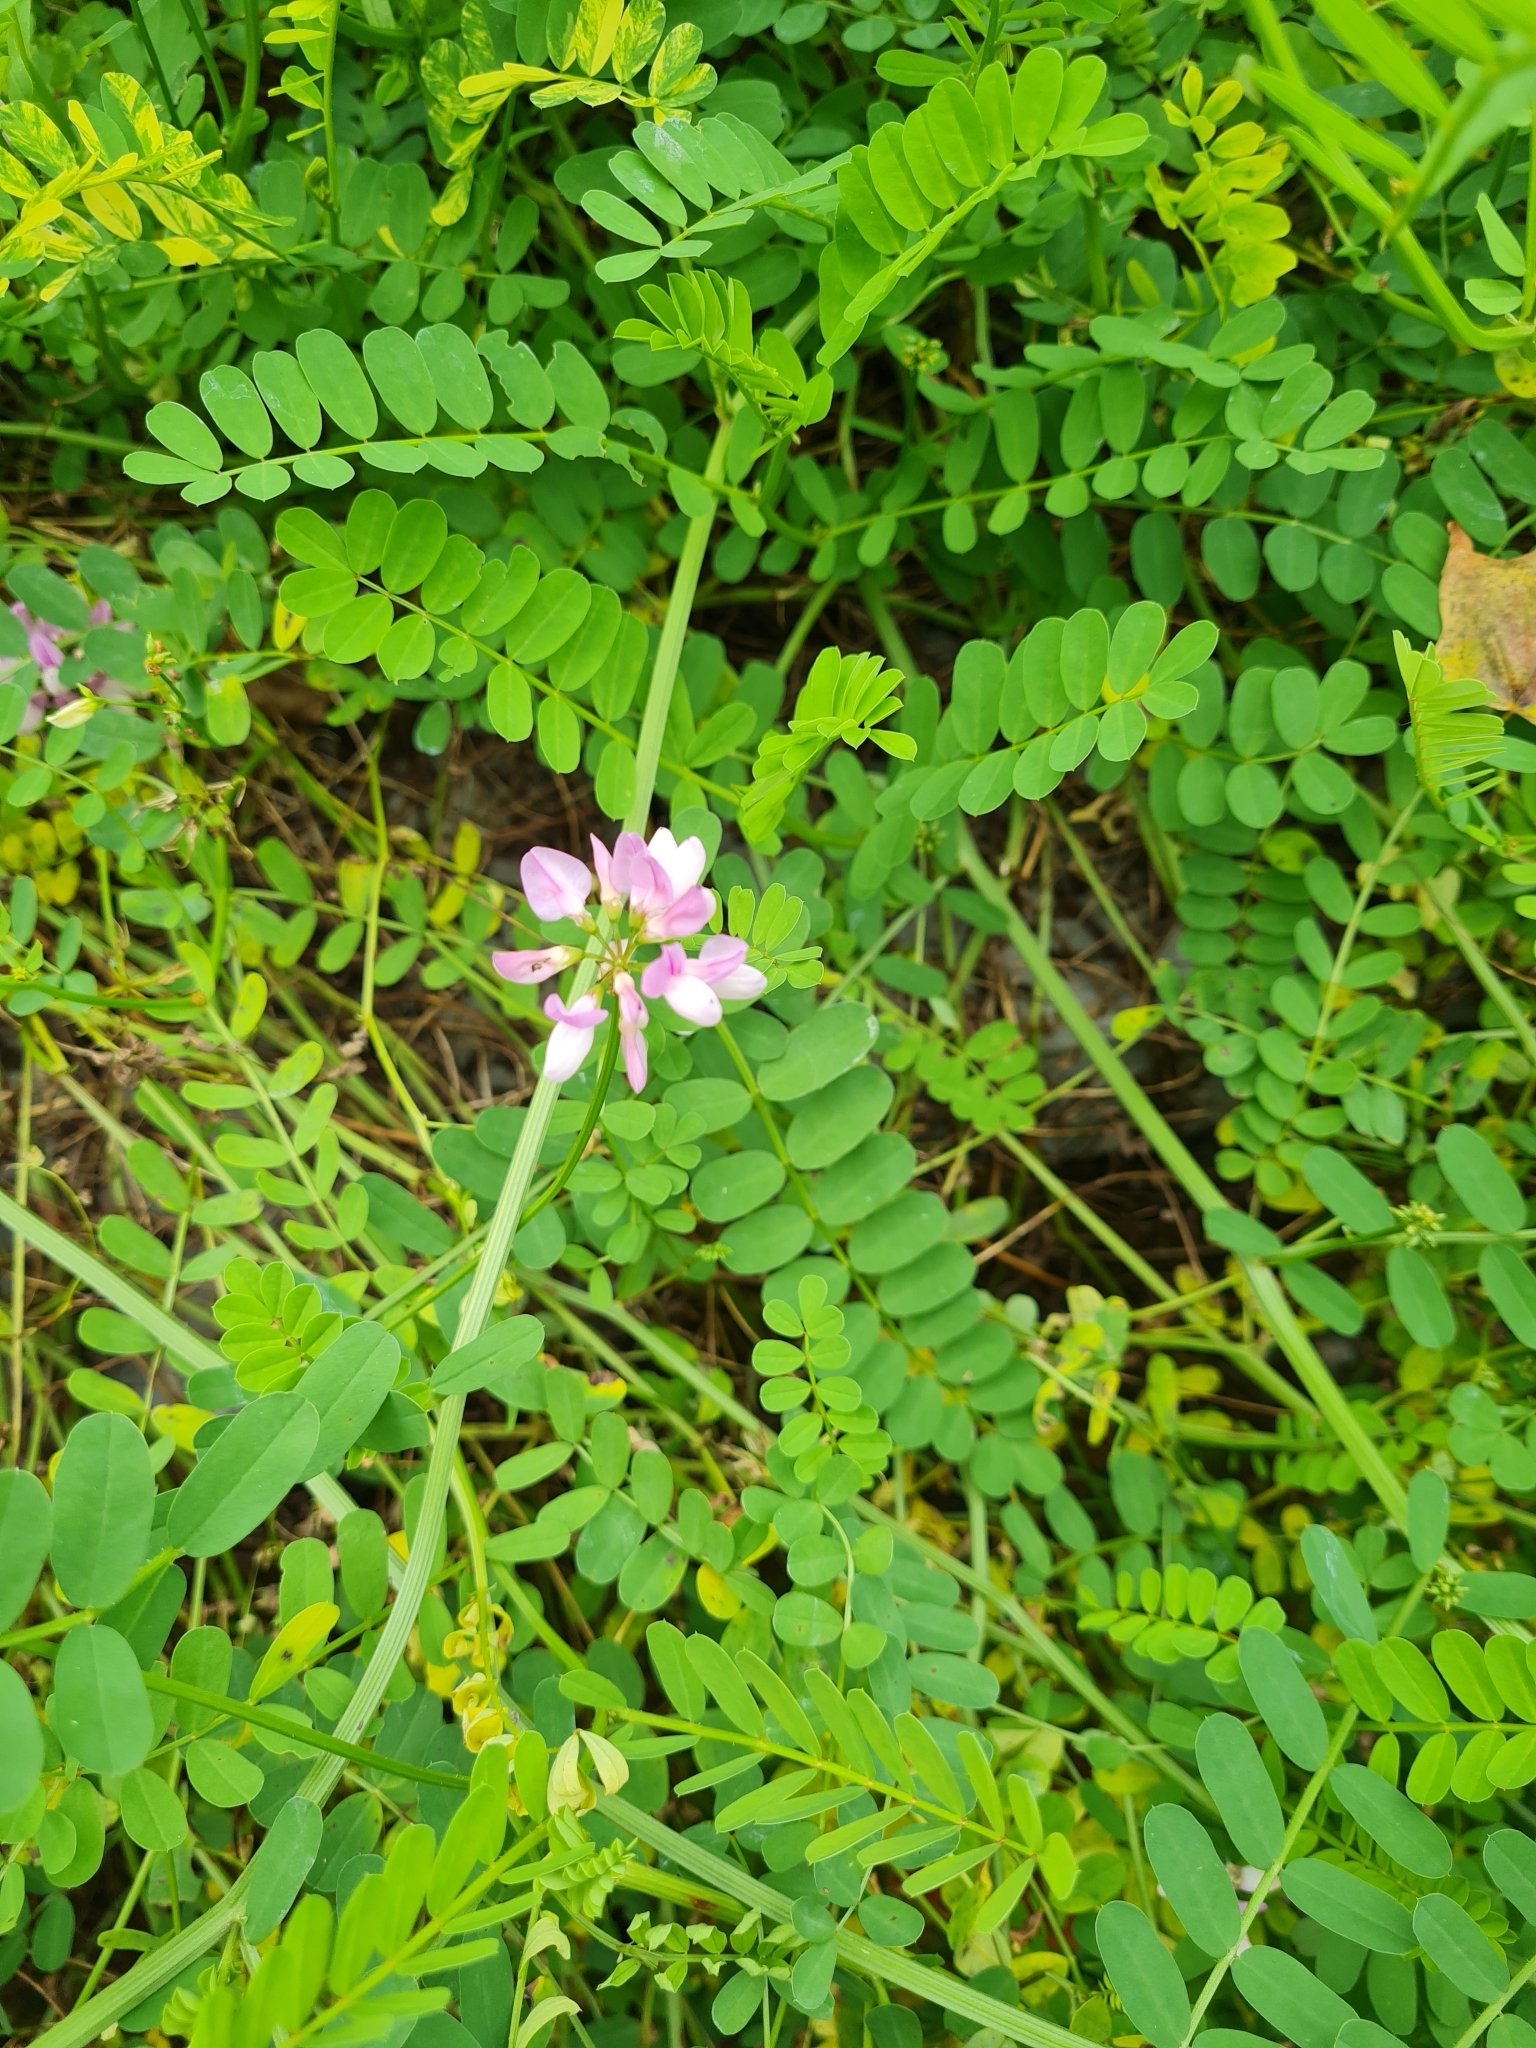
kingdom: Plantae
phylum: Tracheophyta
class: Magnoliopsida
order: Fabales
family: Fabaceae
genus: Coronilla
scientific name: Coronilla varia
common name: Crownvetch
